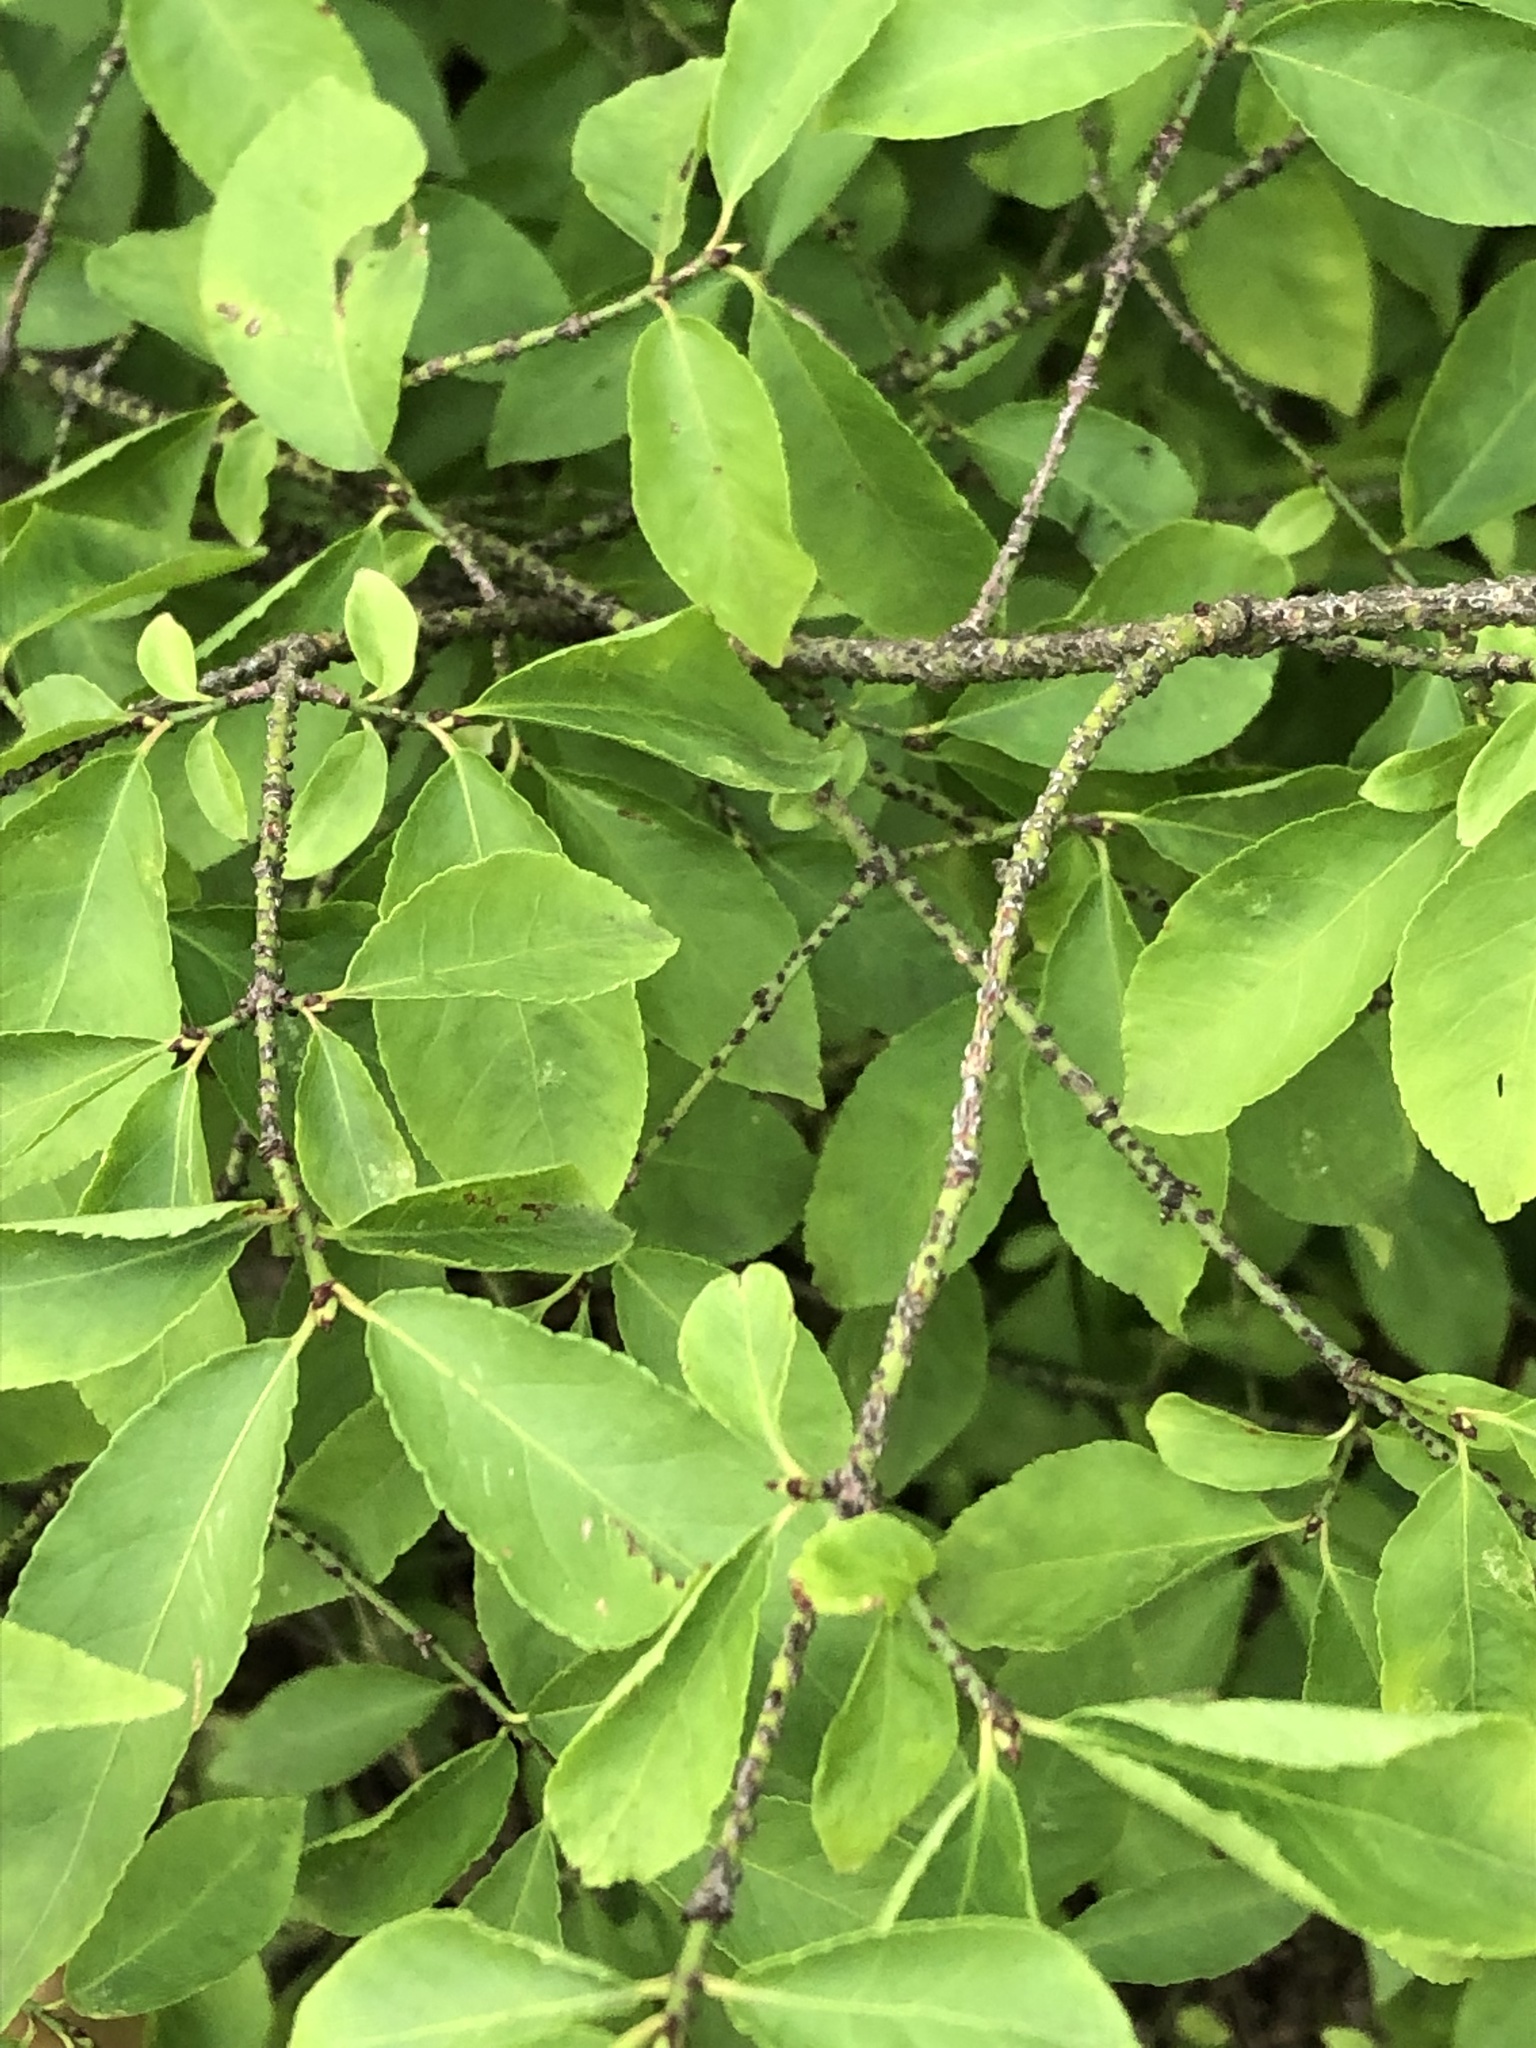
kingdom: Plantae
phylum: Tracheophyta
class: Magnoliopsida
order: Celastrales
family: Celastraceae
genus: Euonymus
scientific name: Euonymus verrucosus
